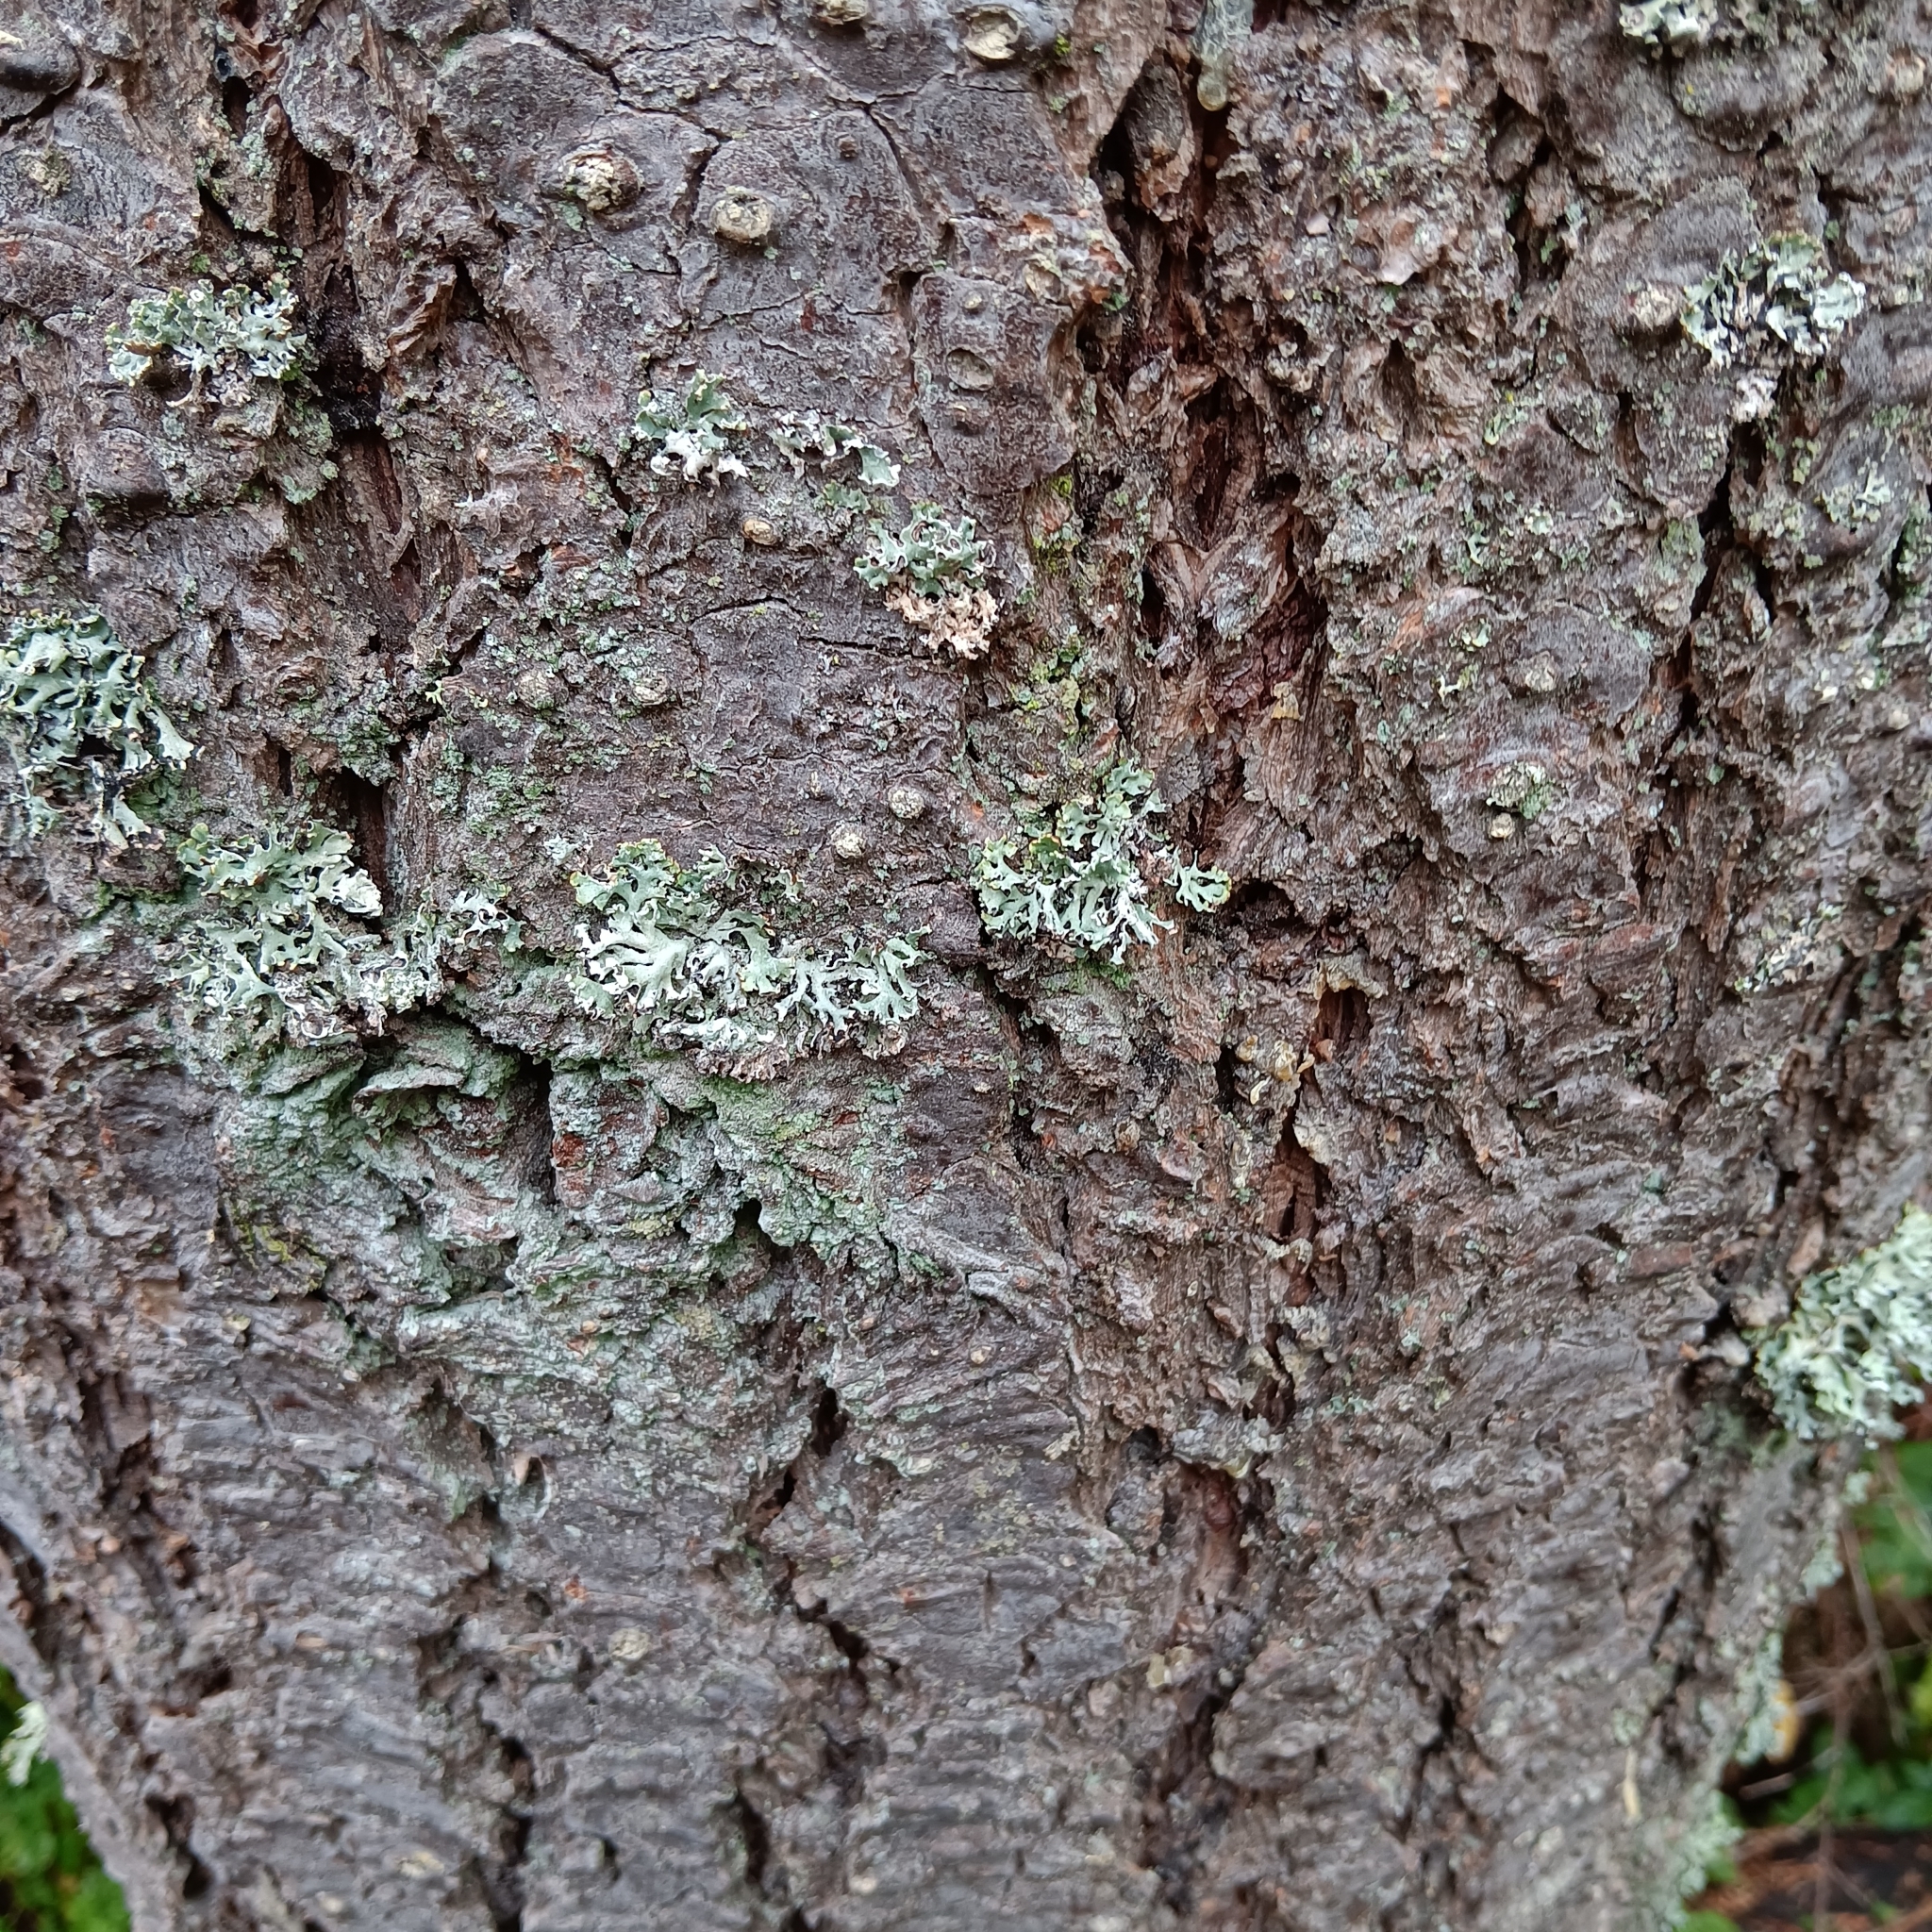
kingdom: Plantae
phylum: Tracheophyta
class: Pinopsida
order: Pinales
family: Pinaceae
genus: Pseudotsuga
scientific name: Pseudotsuga menziesii
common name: Douglas fir
